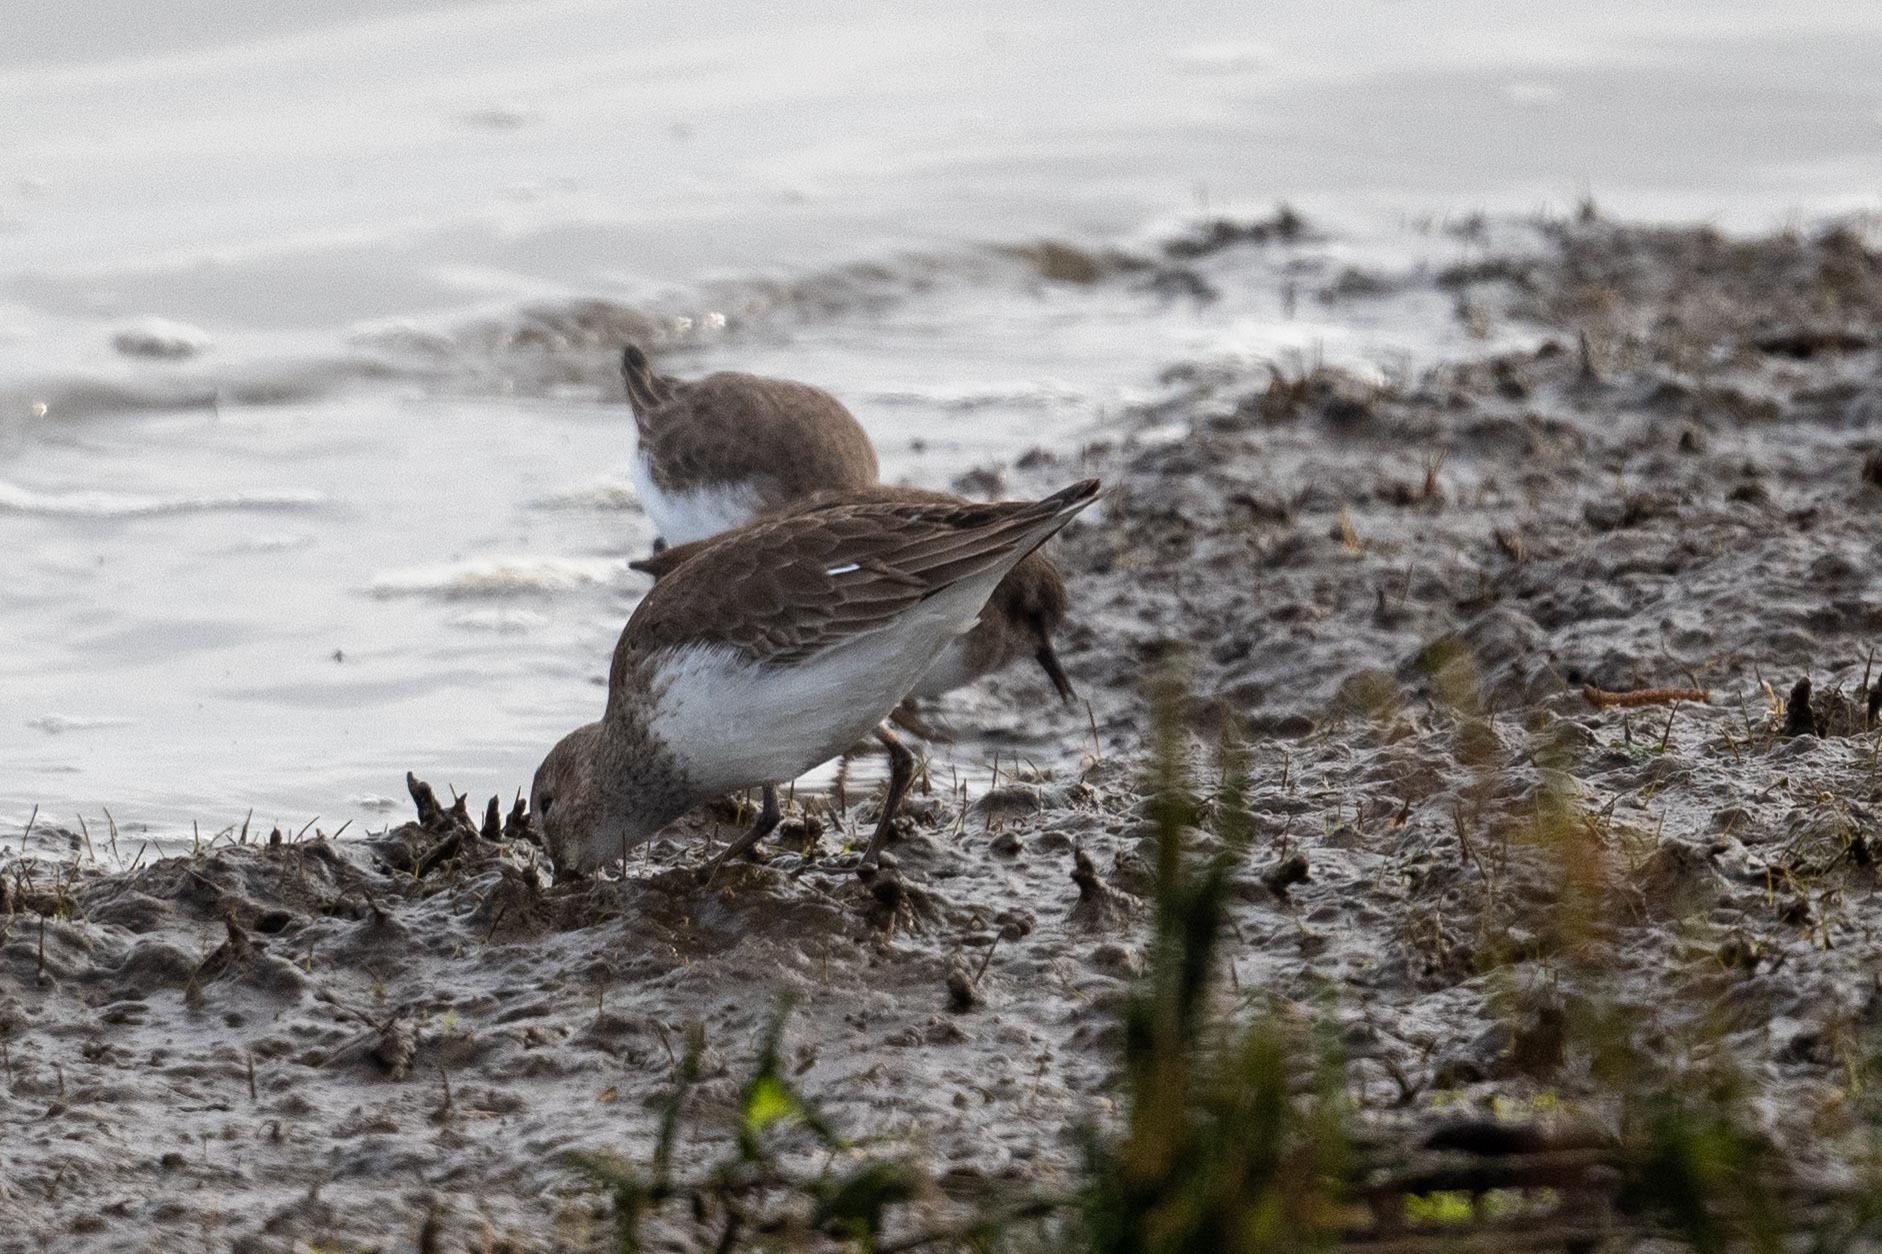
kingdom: Animalia
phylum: Chordata
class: Aves
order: Charadriiformes
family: Scolopacidae
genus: Calidris
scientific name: Calidris alpina
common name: Dunlin
